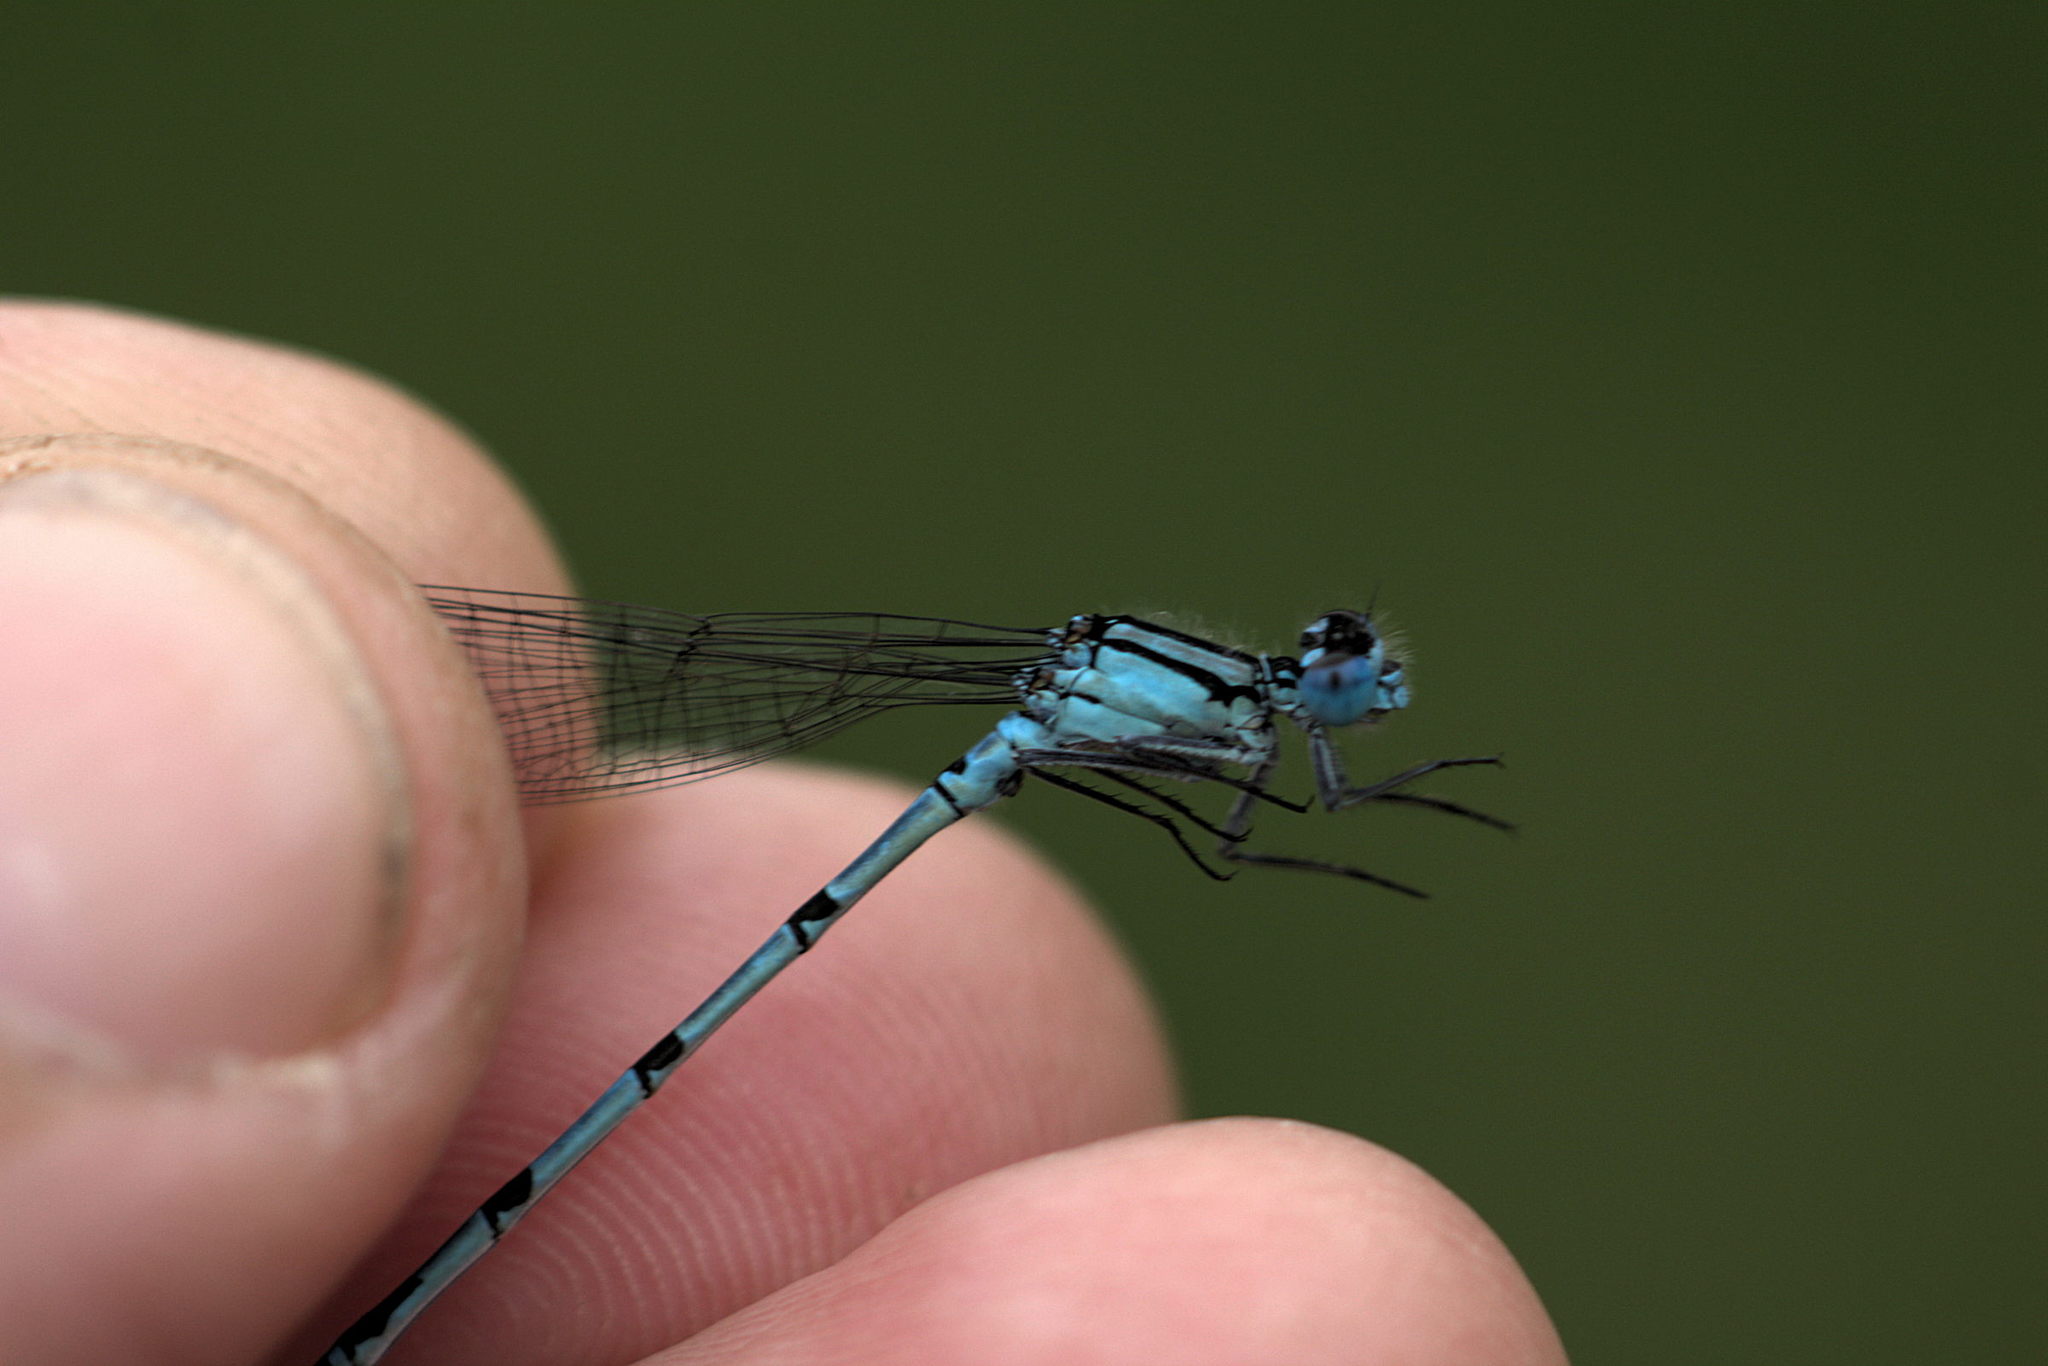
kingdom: Animalia
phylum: Arthropoda
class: Insecta
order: Odonata
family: Coenagrionidae
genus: Enallagma
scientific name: Enallagma cyathigerum
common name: Common blue damselfly
